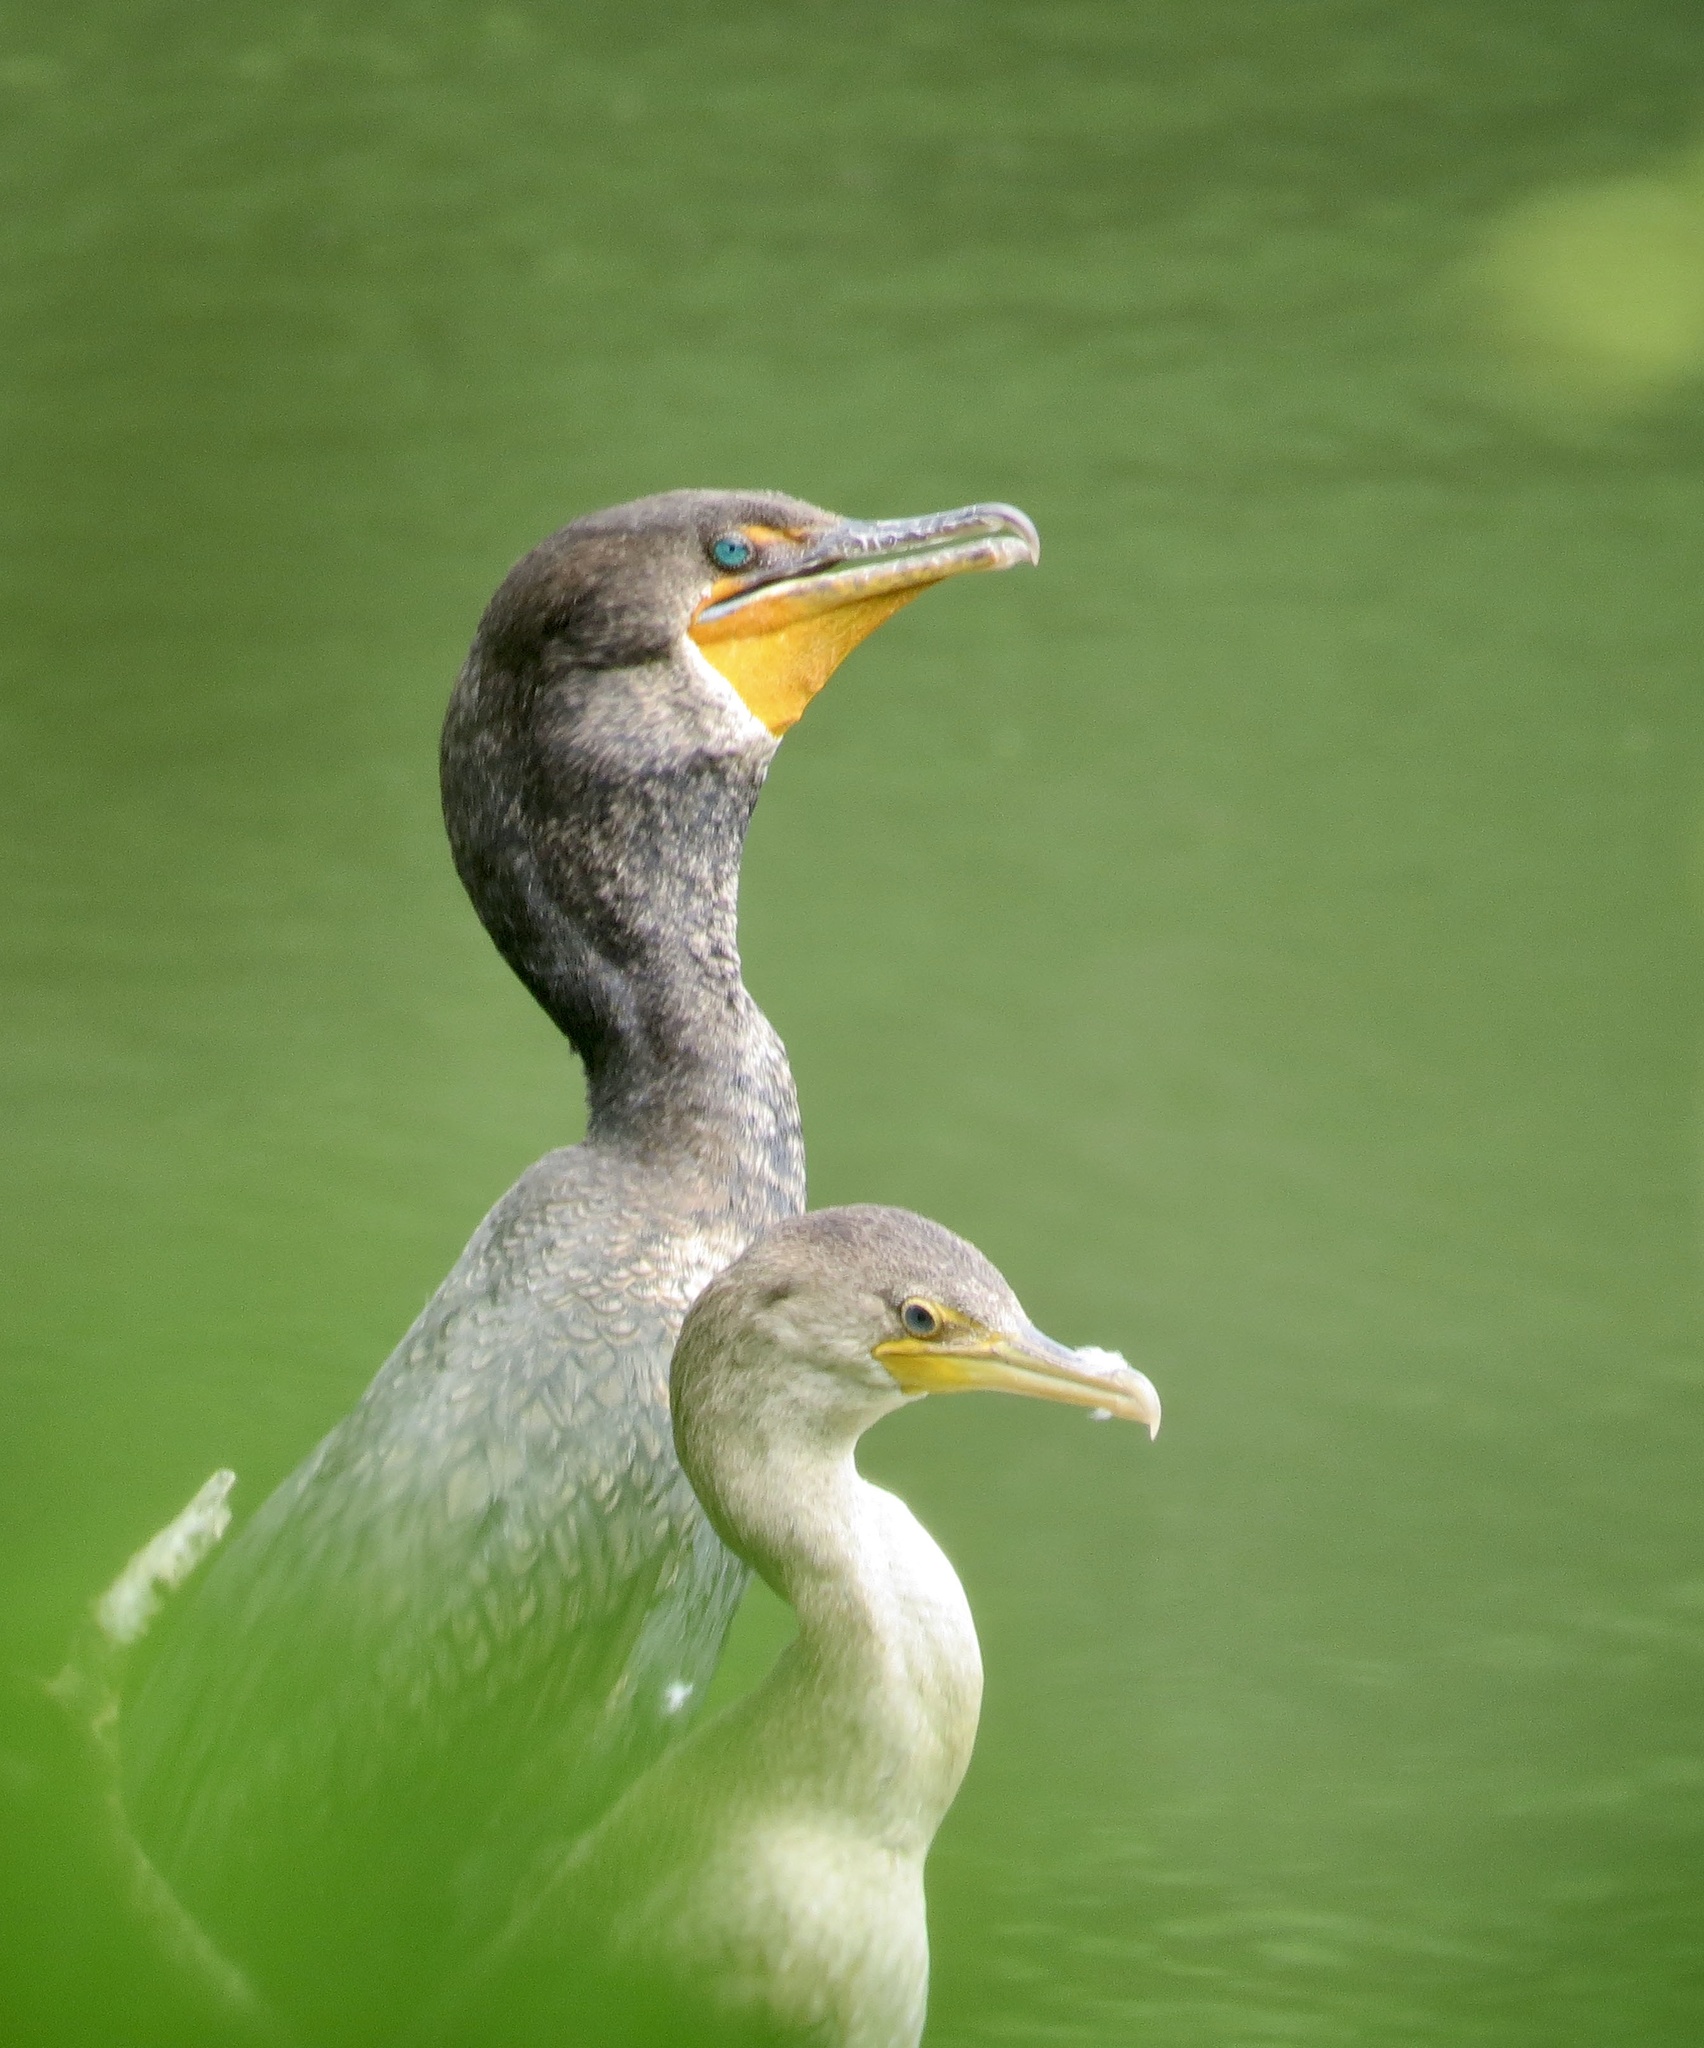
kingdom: Animalia
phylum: Chordata
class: Aves
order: Suliformes
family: Phalacrocoracidae
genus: Phalacrocorax
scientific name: Phalacrocorax auritus
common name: Double-crested cormorant
